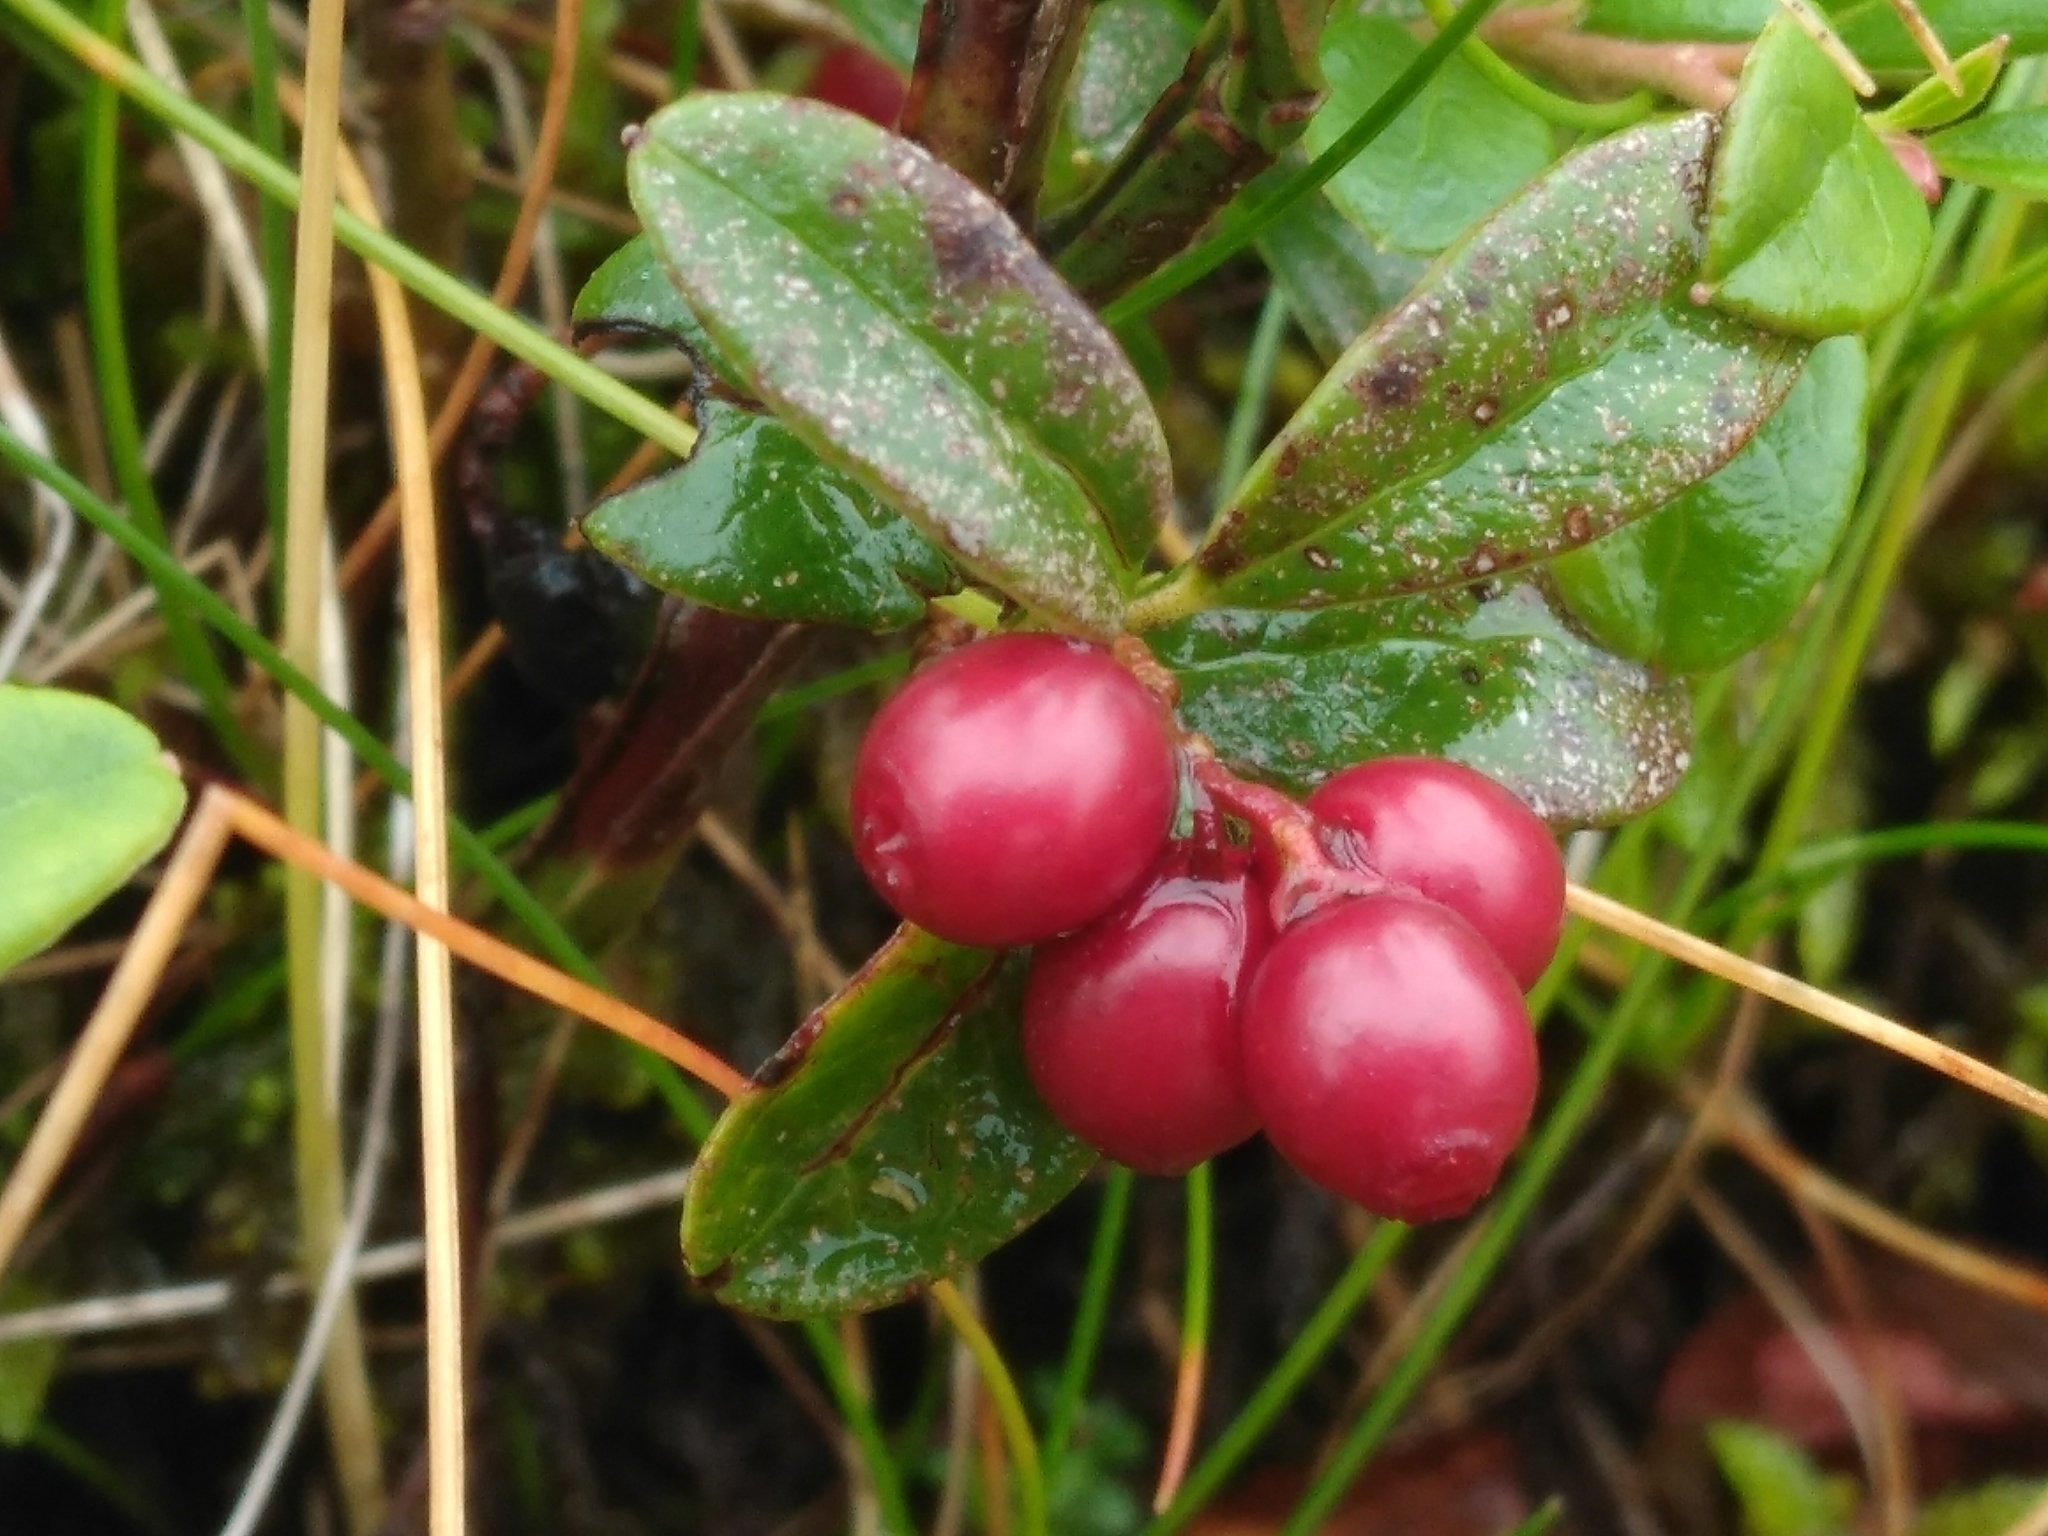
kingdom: Plantae
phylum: Tracheophyta
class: Magnoliopsida
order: Ericales
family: Ericaceae
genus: Vaccinium
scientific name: Vaccinium vitis-idaea
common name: Cowberry
